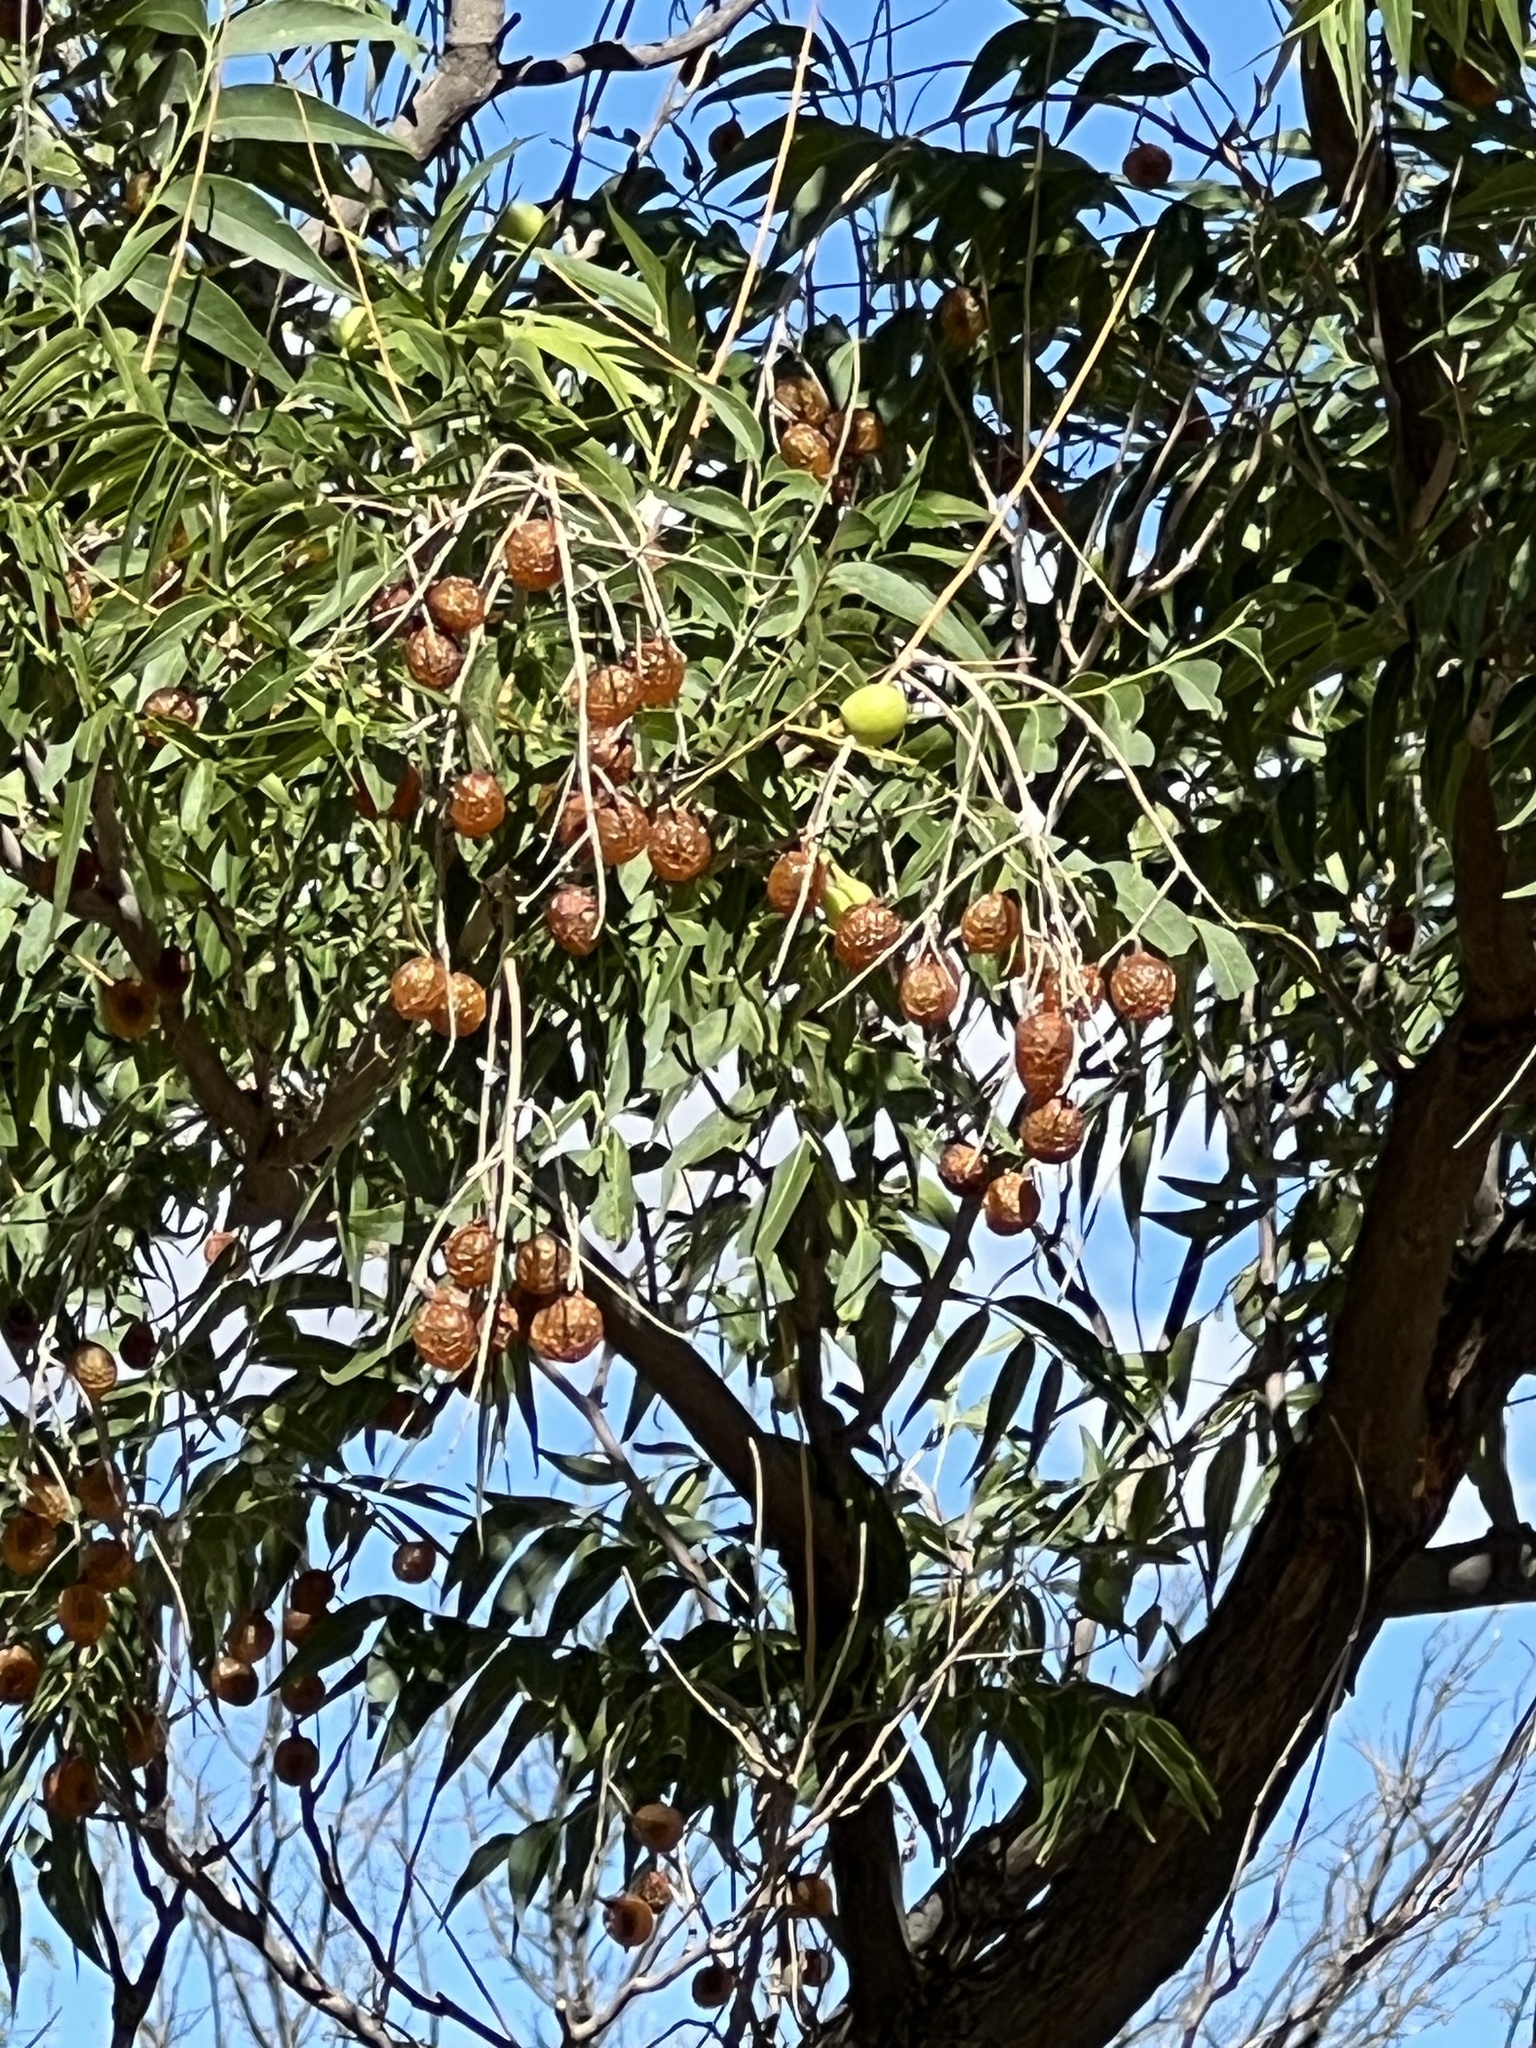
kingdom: Plantae
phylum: Tracheophyta
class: Magnoliopsida
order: Sapindales
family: Sapindaceae
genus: Sapindus
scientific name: Sapindus drummondii
